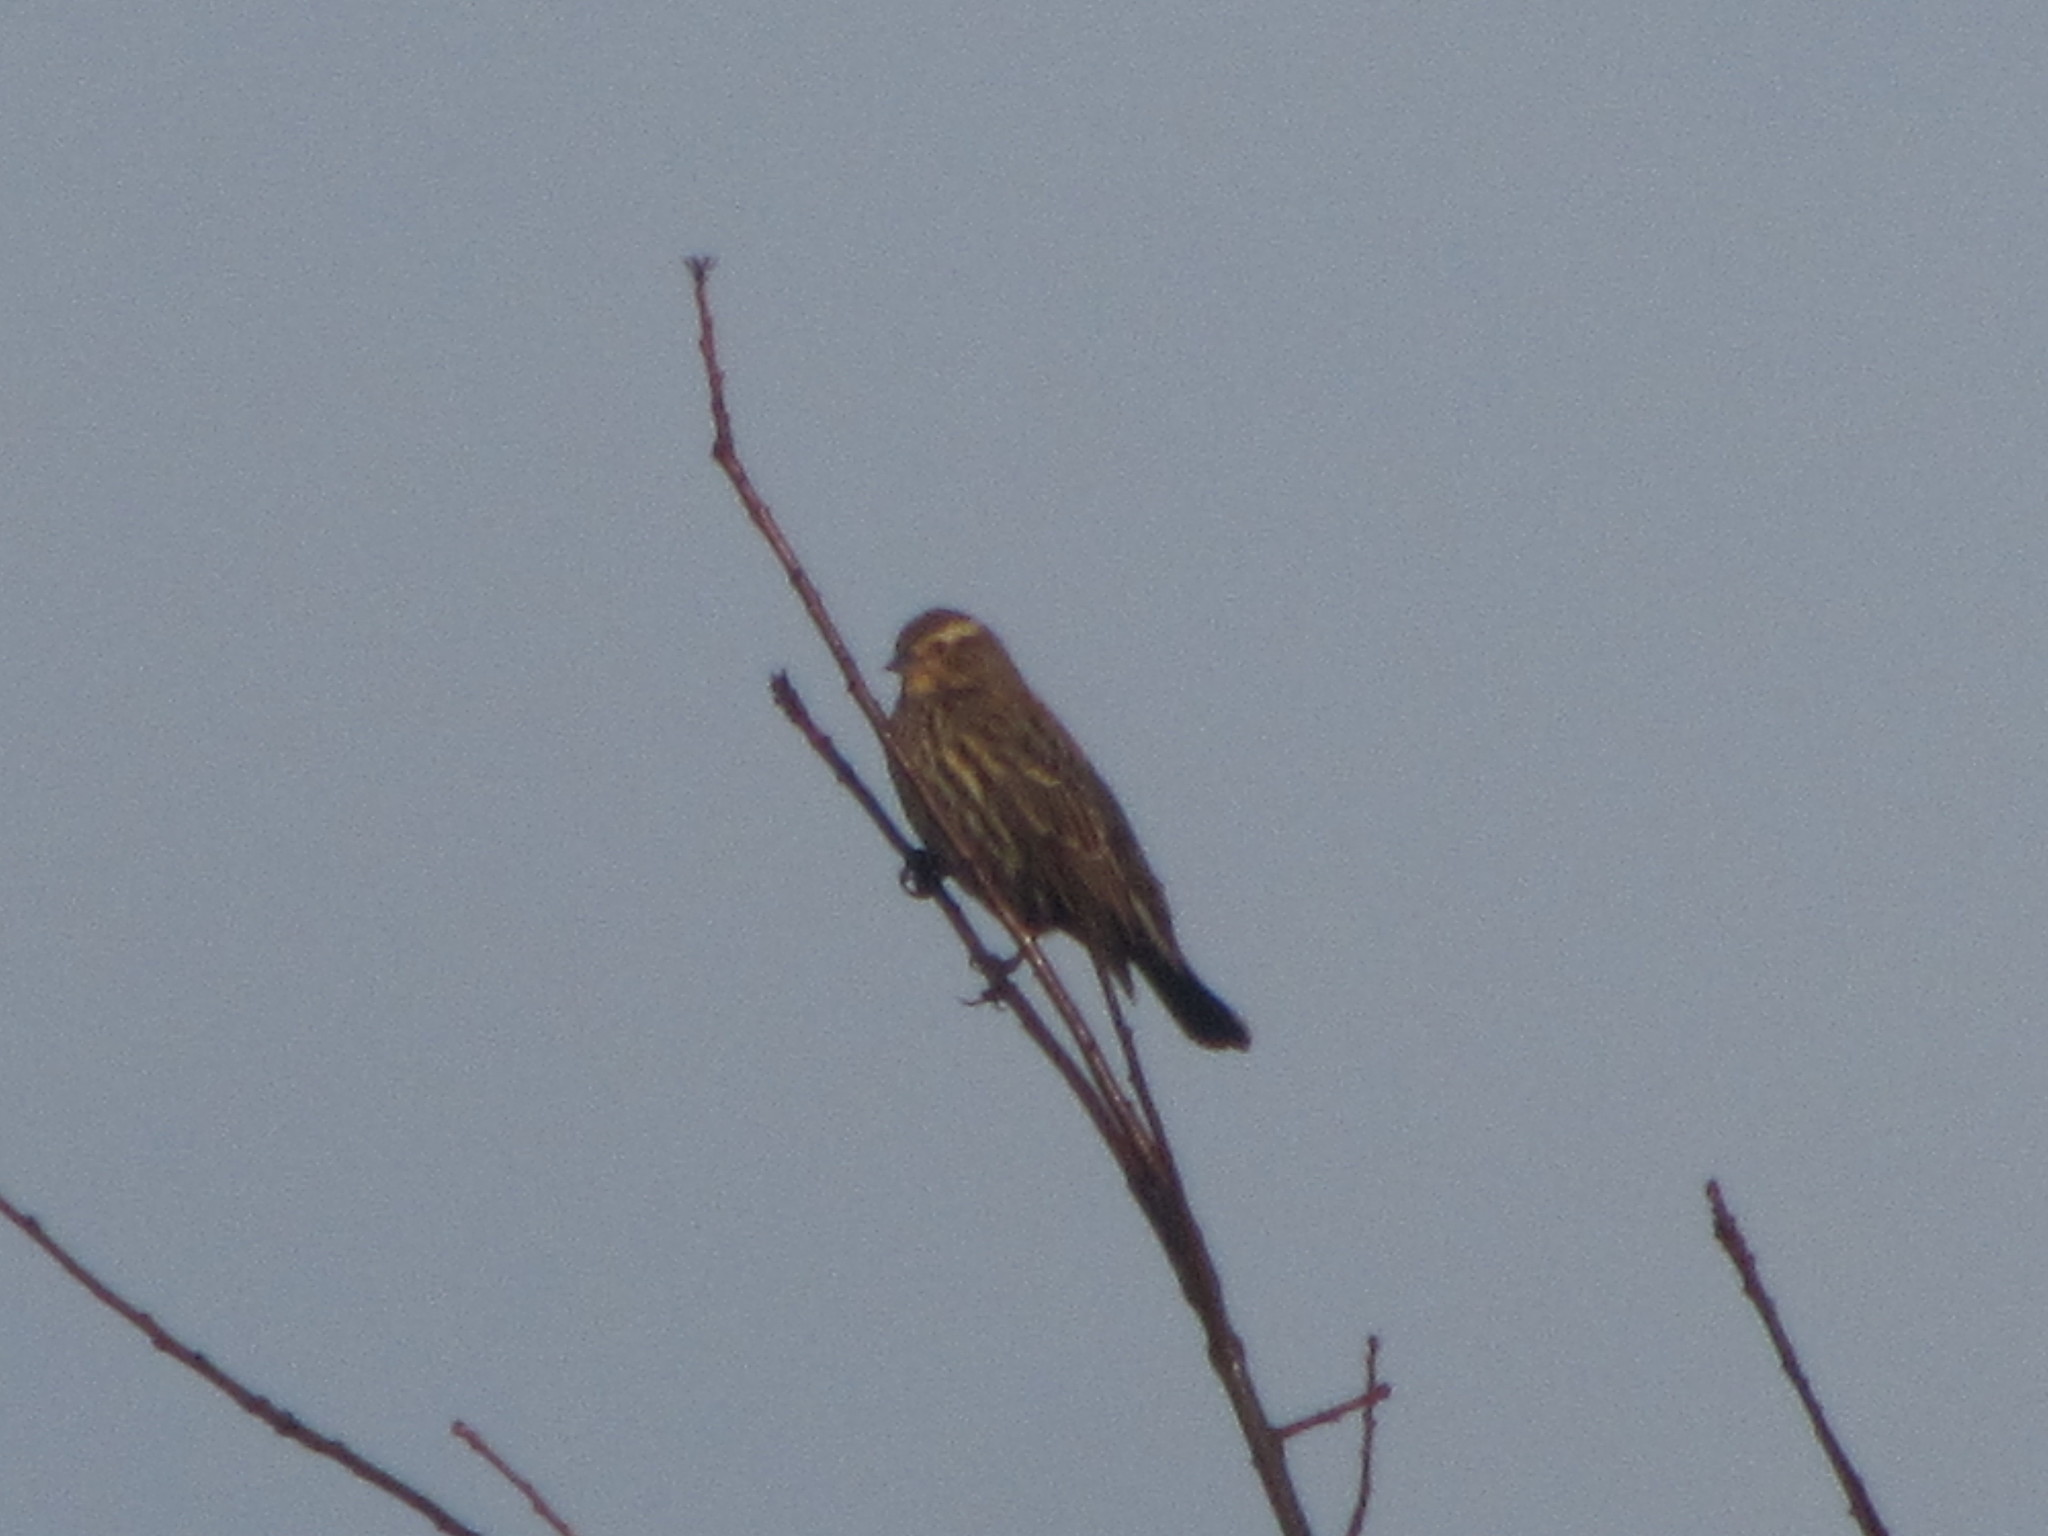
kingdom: Animalia
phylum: Chordata
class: Aves
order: Passeriformes
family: Passerellidae
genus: Melospiza
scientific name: Melospiza melodia
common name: Song sparrow
